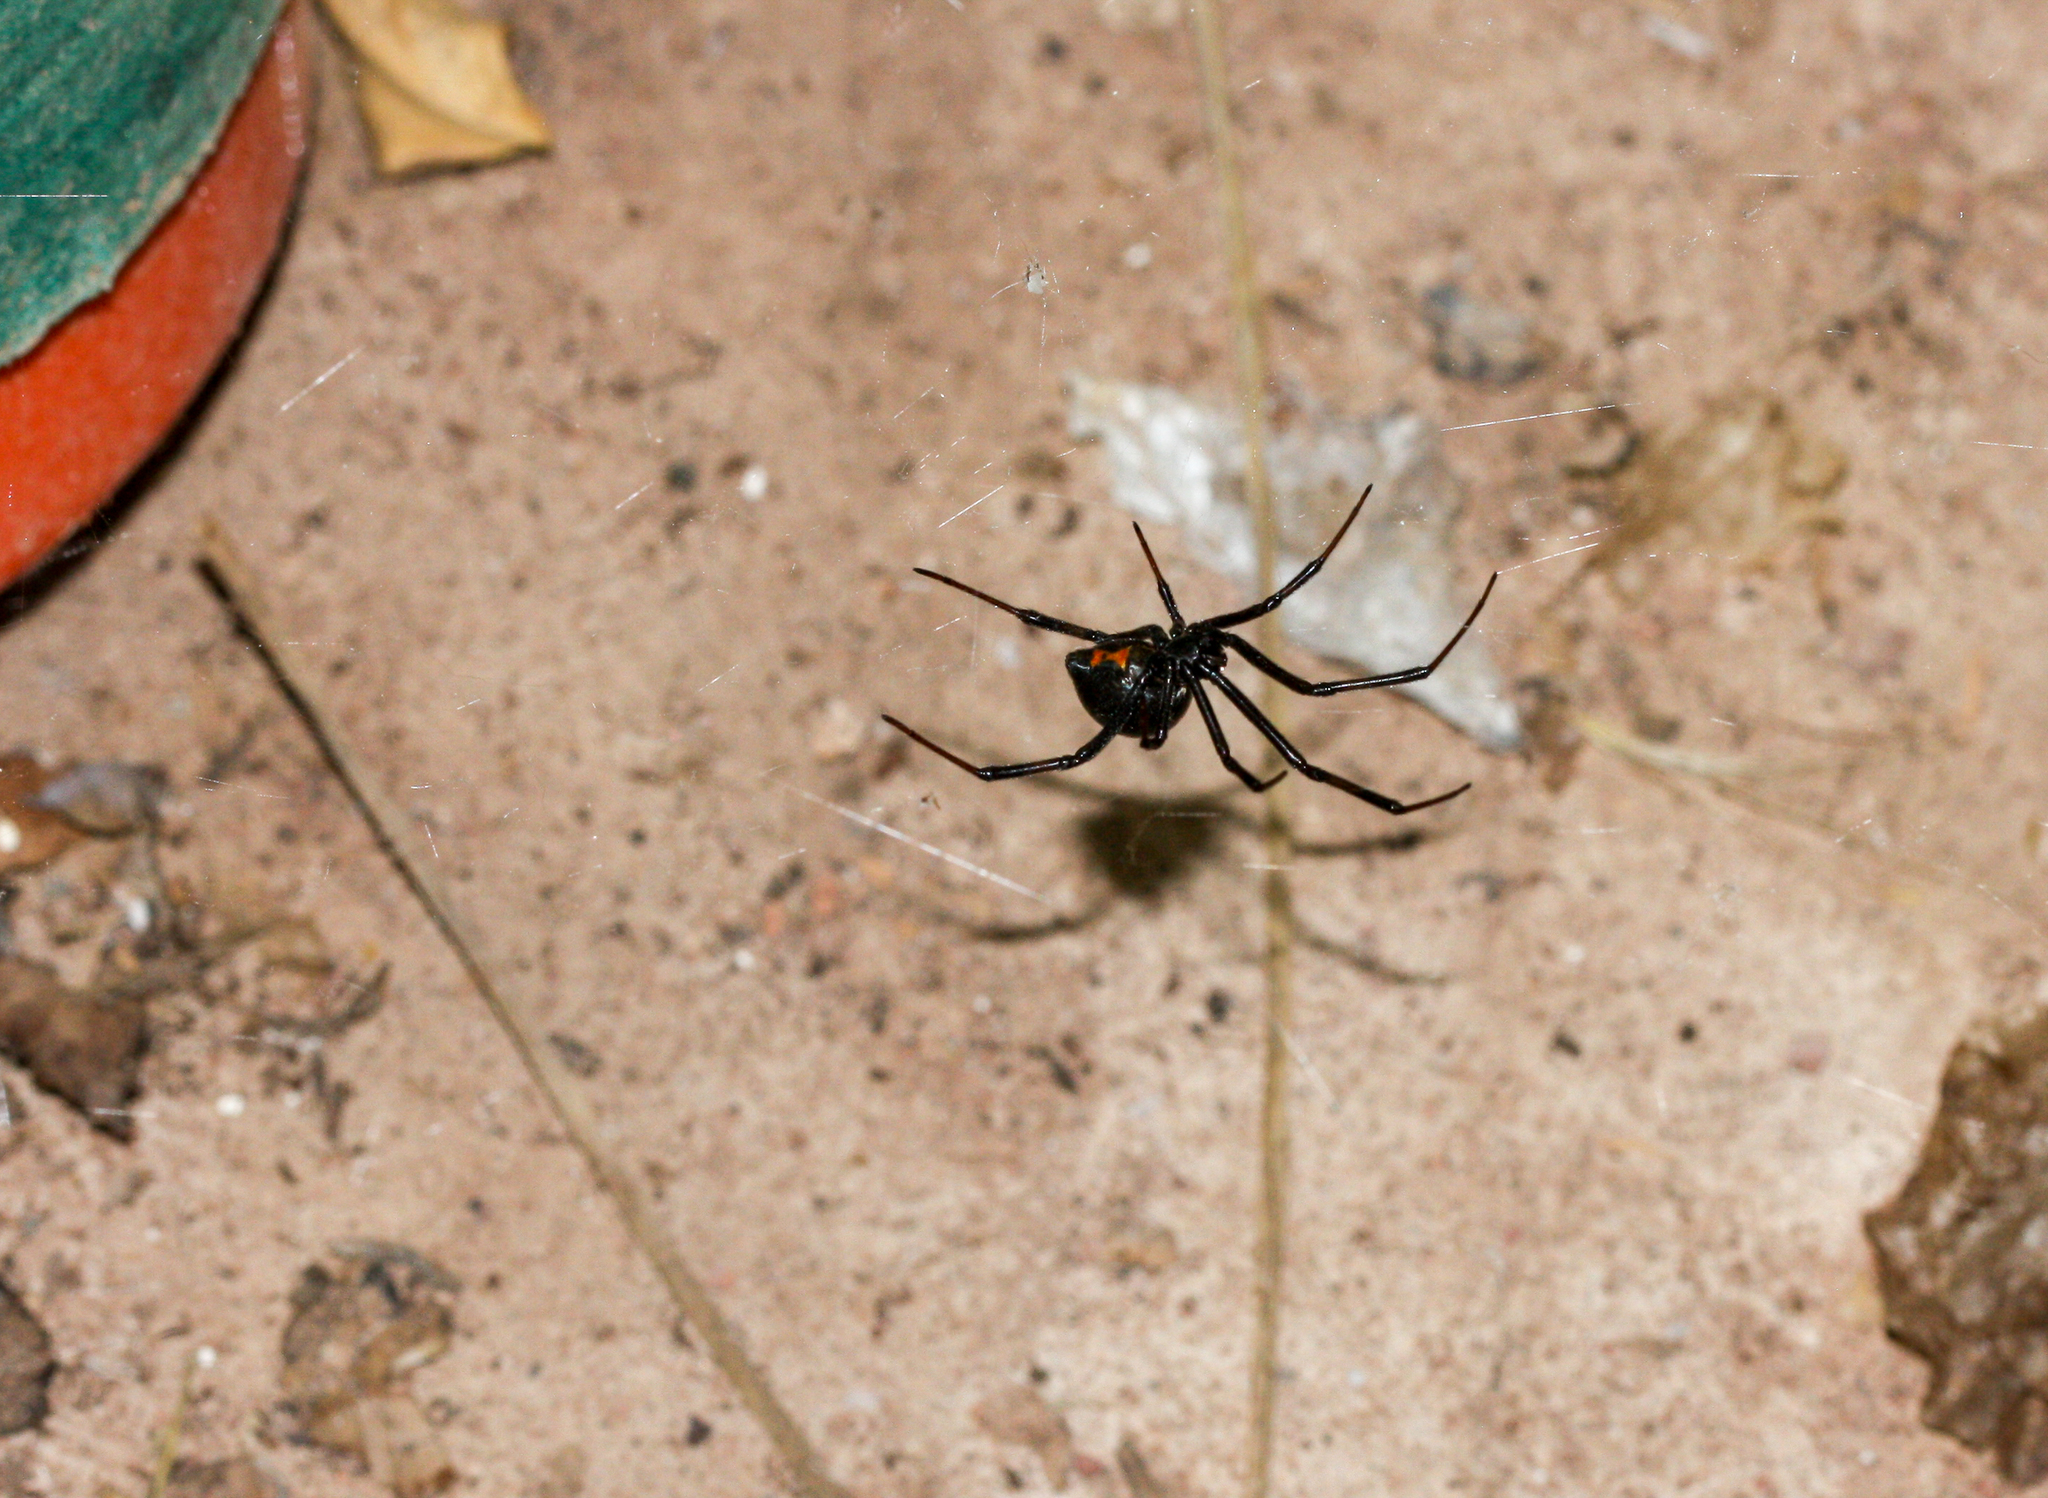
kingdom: Animalia
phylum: Arthropoda
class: Arachnida
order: Araneae
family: Theridiidae
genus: Latrodectus
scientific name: Latrodectus hesperus
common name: Western black widow
